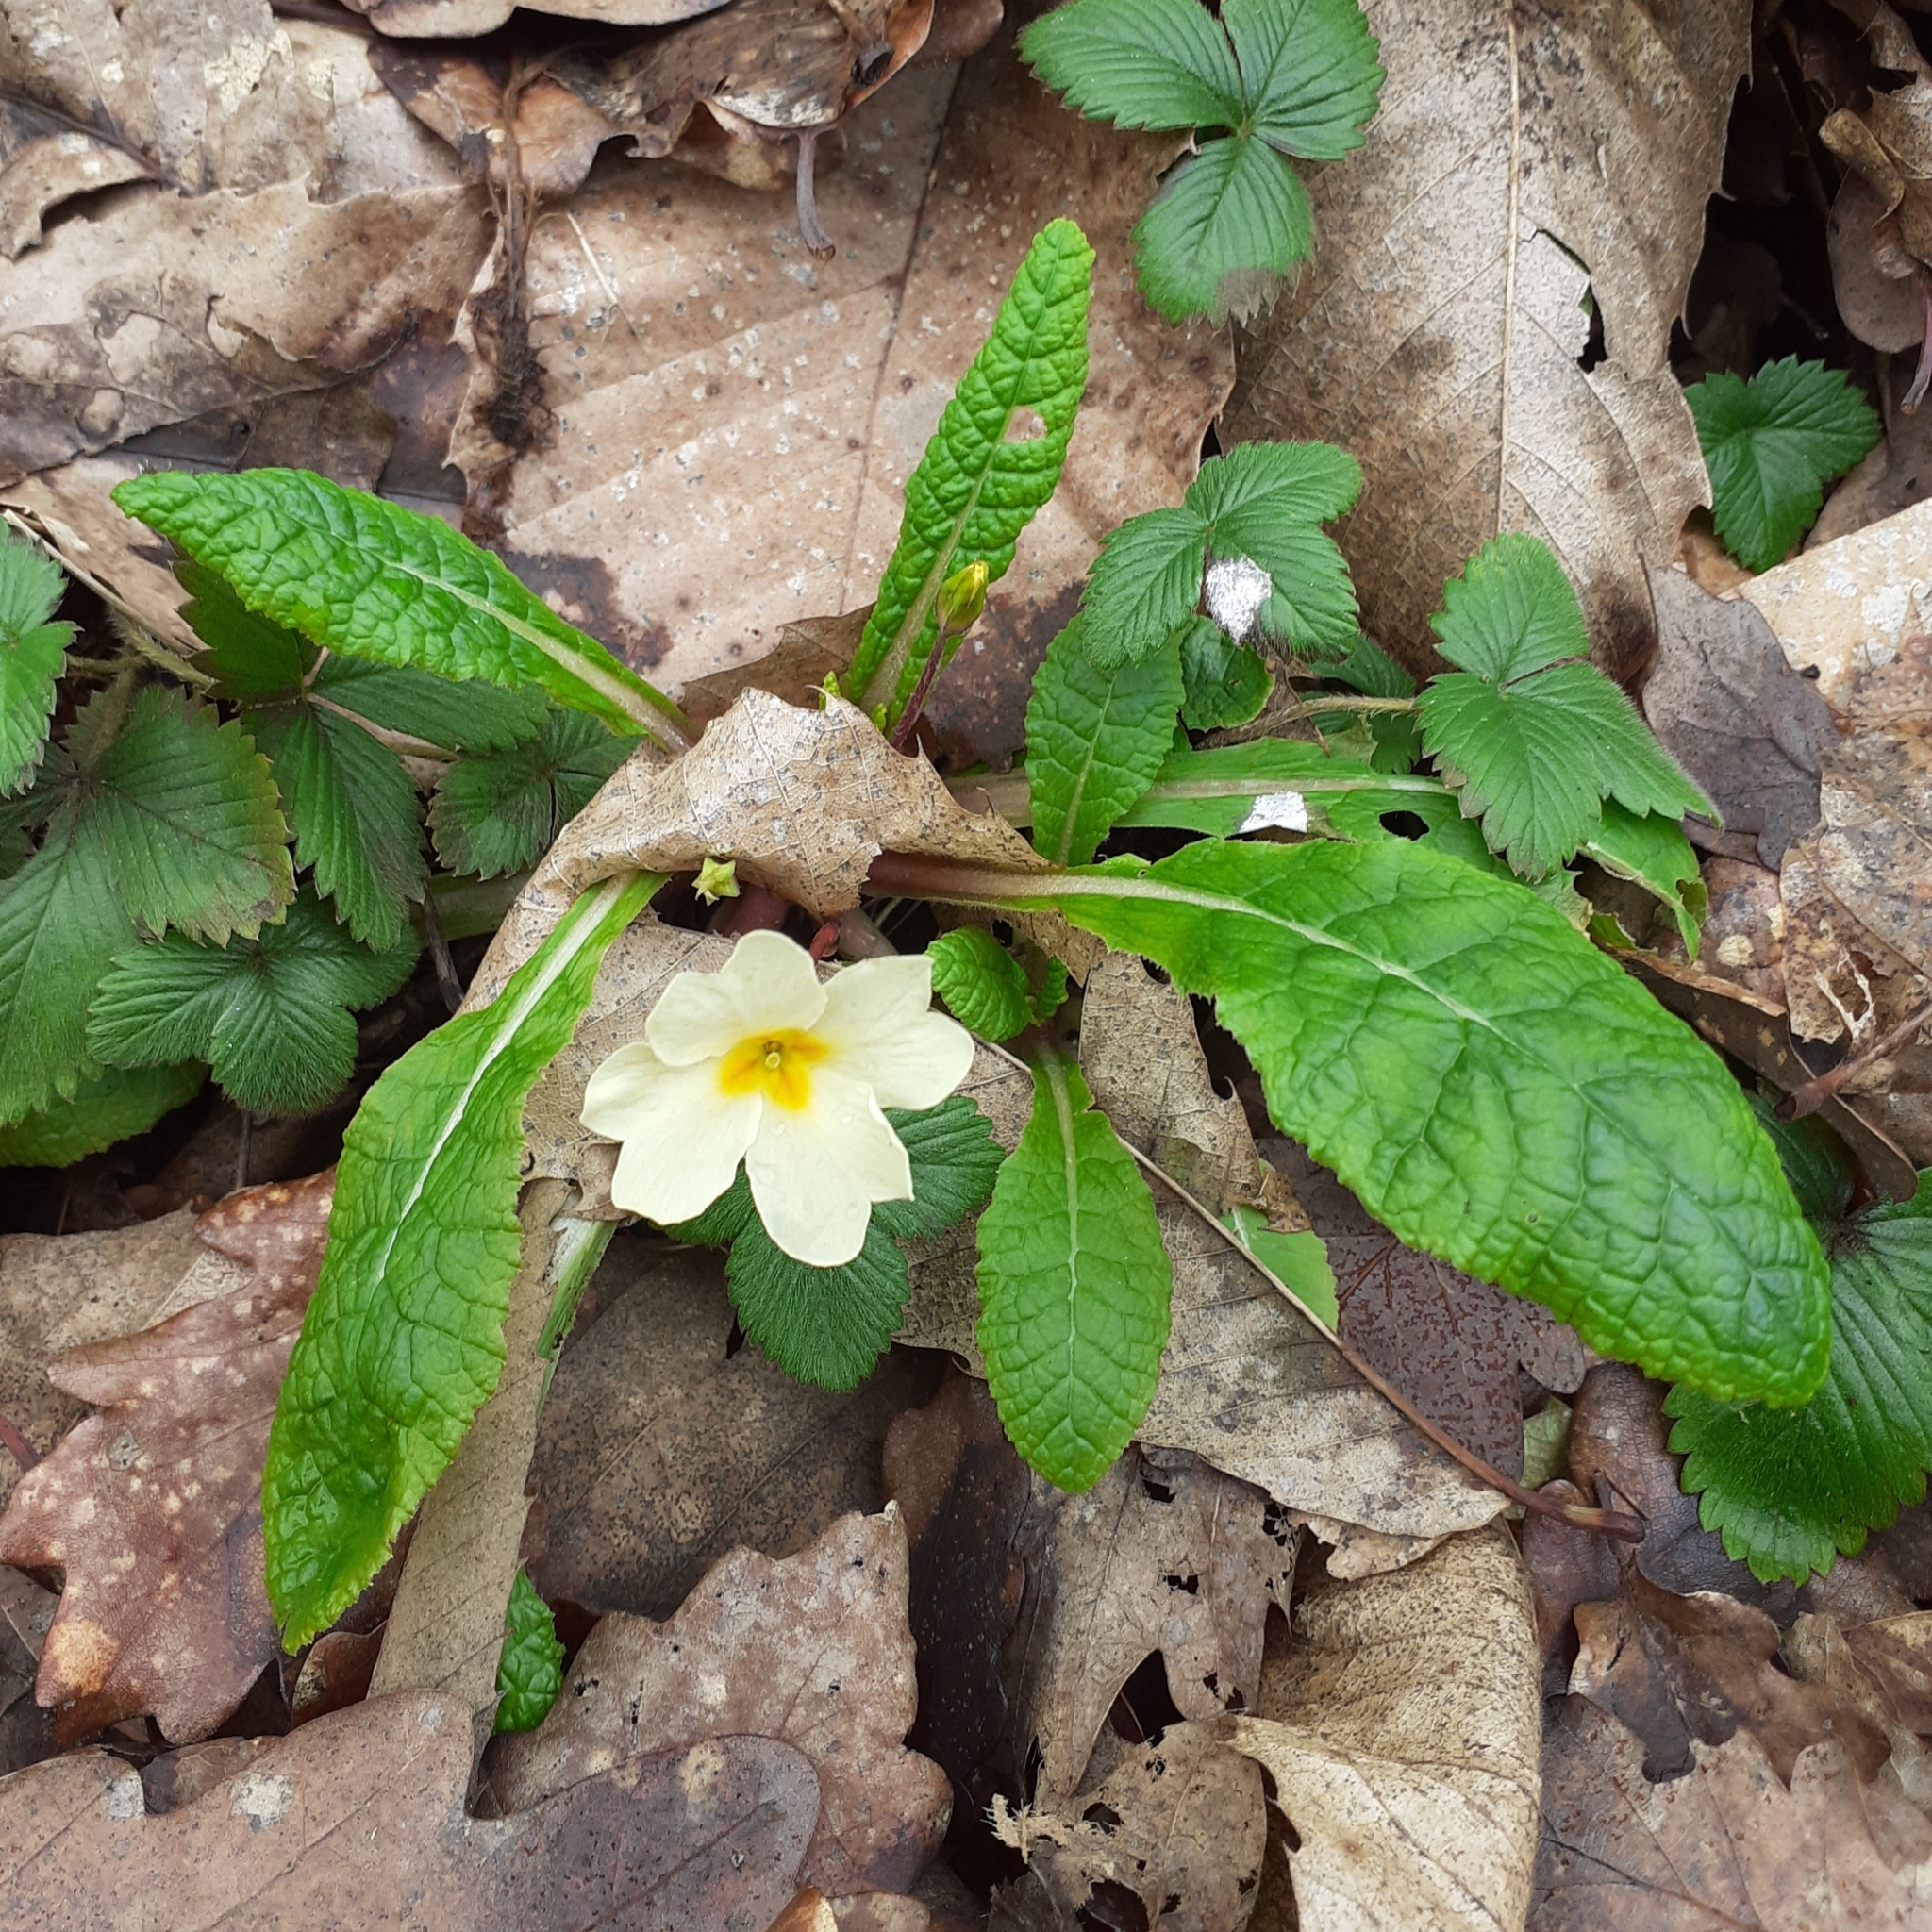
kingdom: Plantae
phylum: Tracheophyta
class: Magnoliopsida
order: Ericales
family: Primulaceae
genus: Primula
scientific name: Primula vulgaris
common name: Primrose
